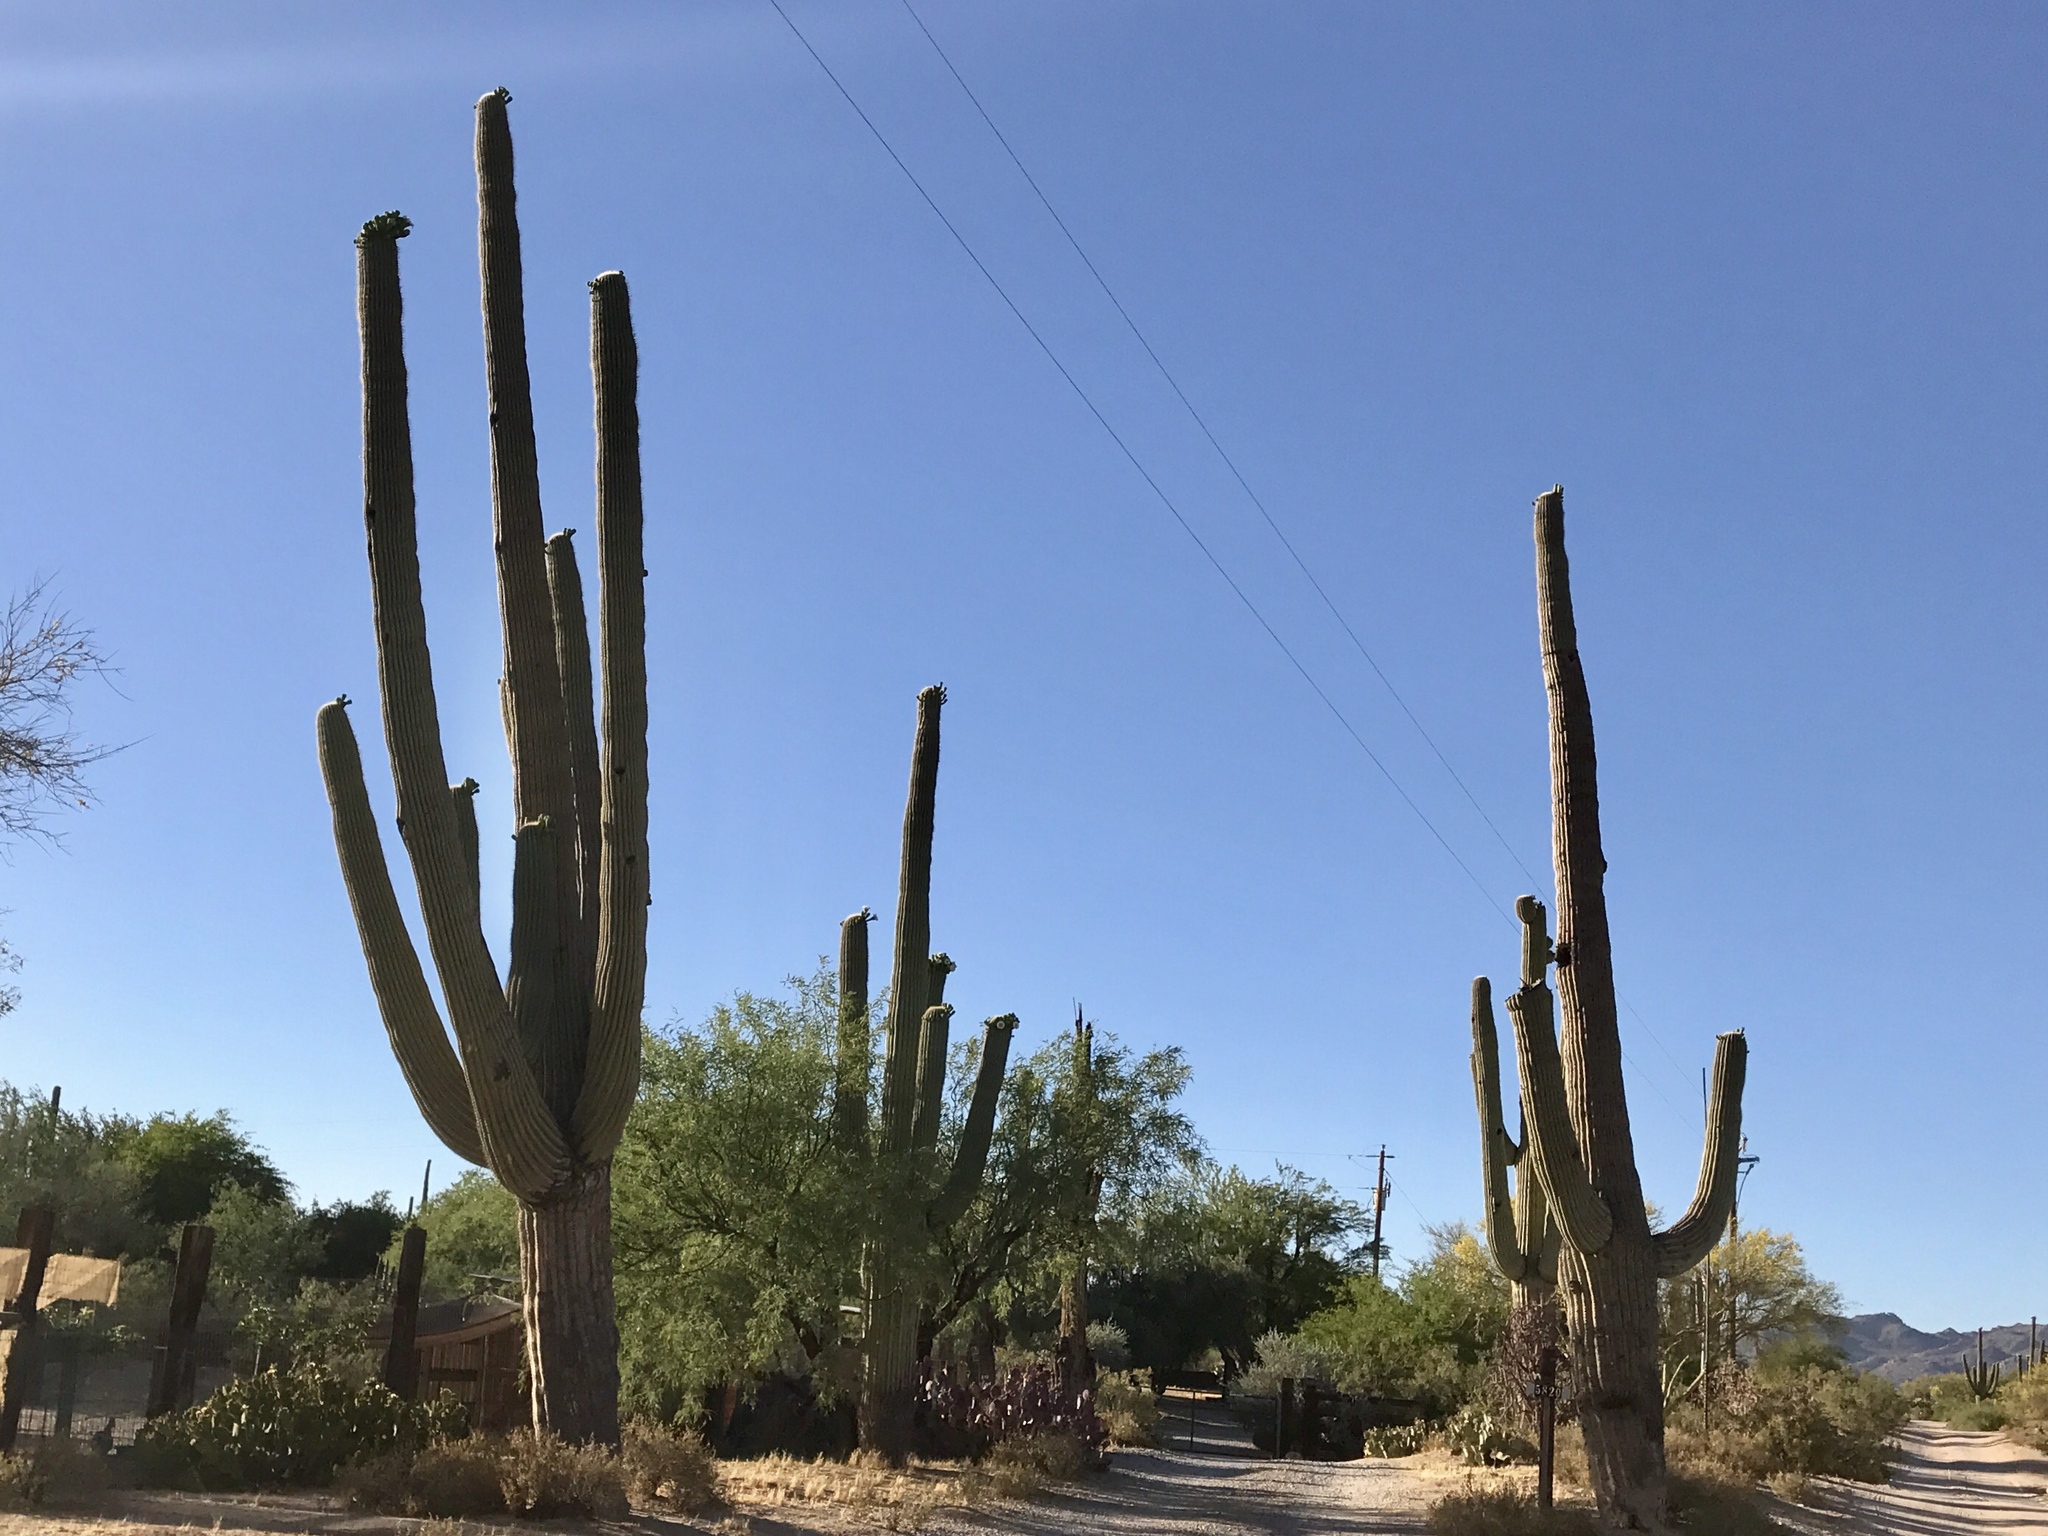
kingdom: Plantae
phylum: Tracheophyta
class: Magnoliopsida
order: Caryophyllales
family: Cactaceae
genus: Carnegiea
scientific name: Carnegiea gigantea
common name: Saguaro
